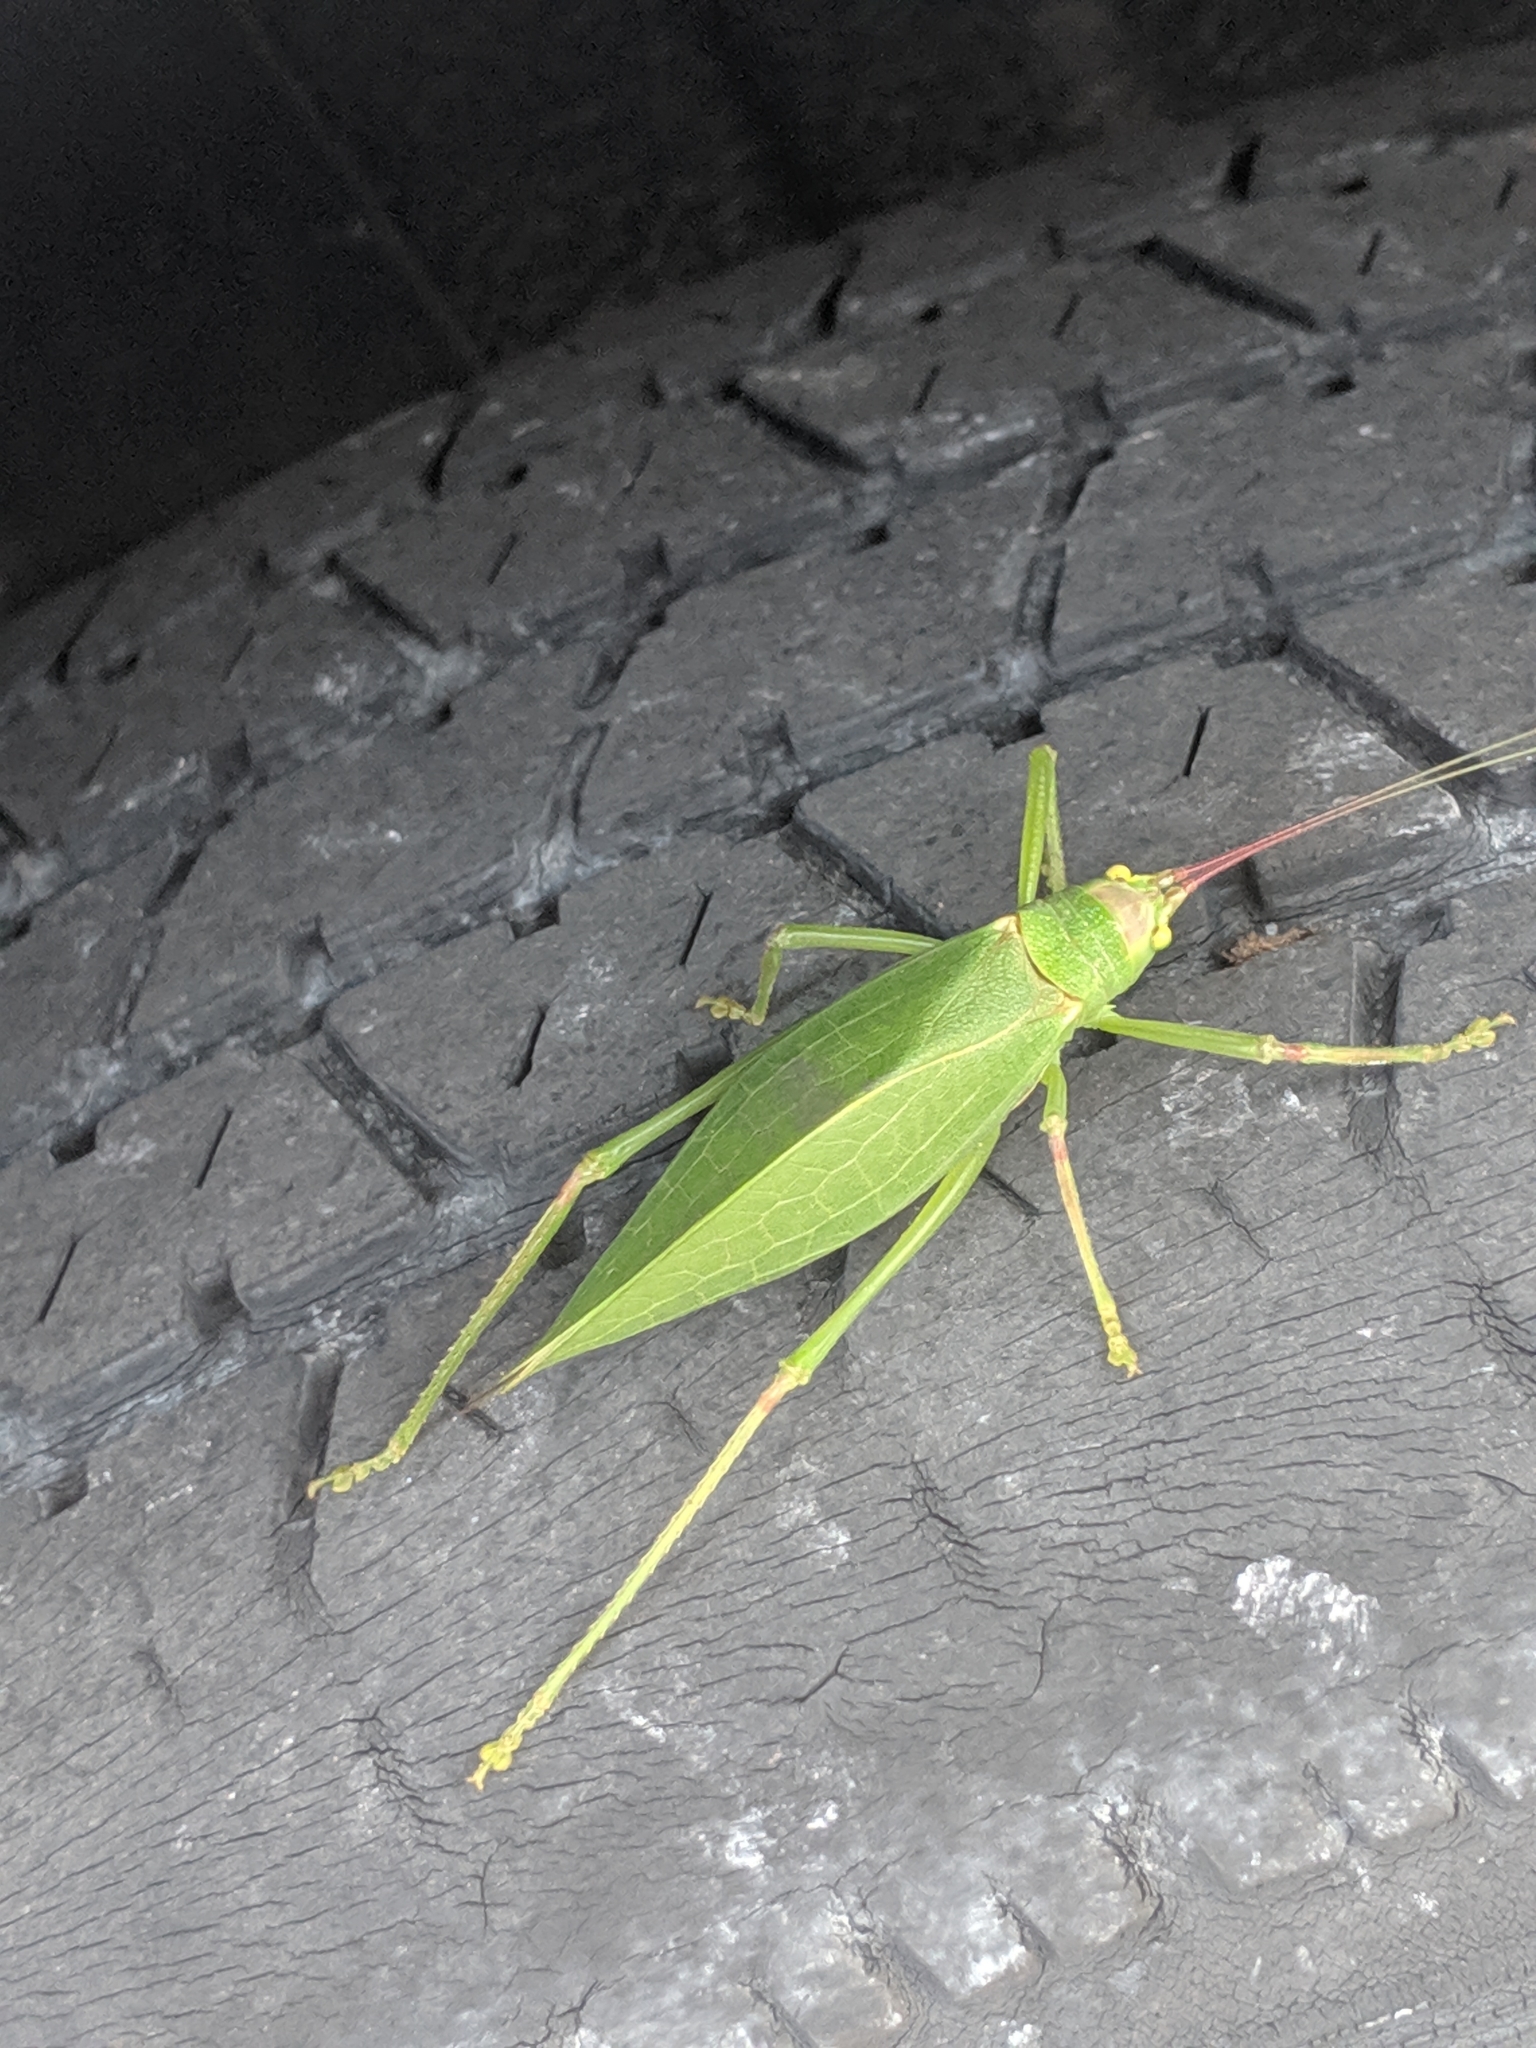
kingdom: Animalia
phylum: Arthropoda
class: Insecta
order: Orthoptera
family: Tettigoniidae
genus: Pterophylla
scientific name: Pterophylla camellifolia
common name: Common true katydid
